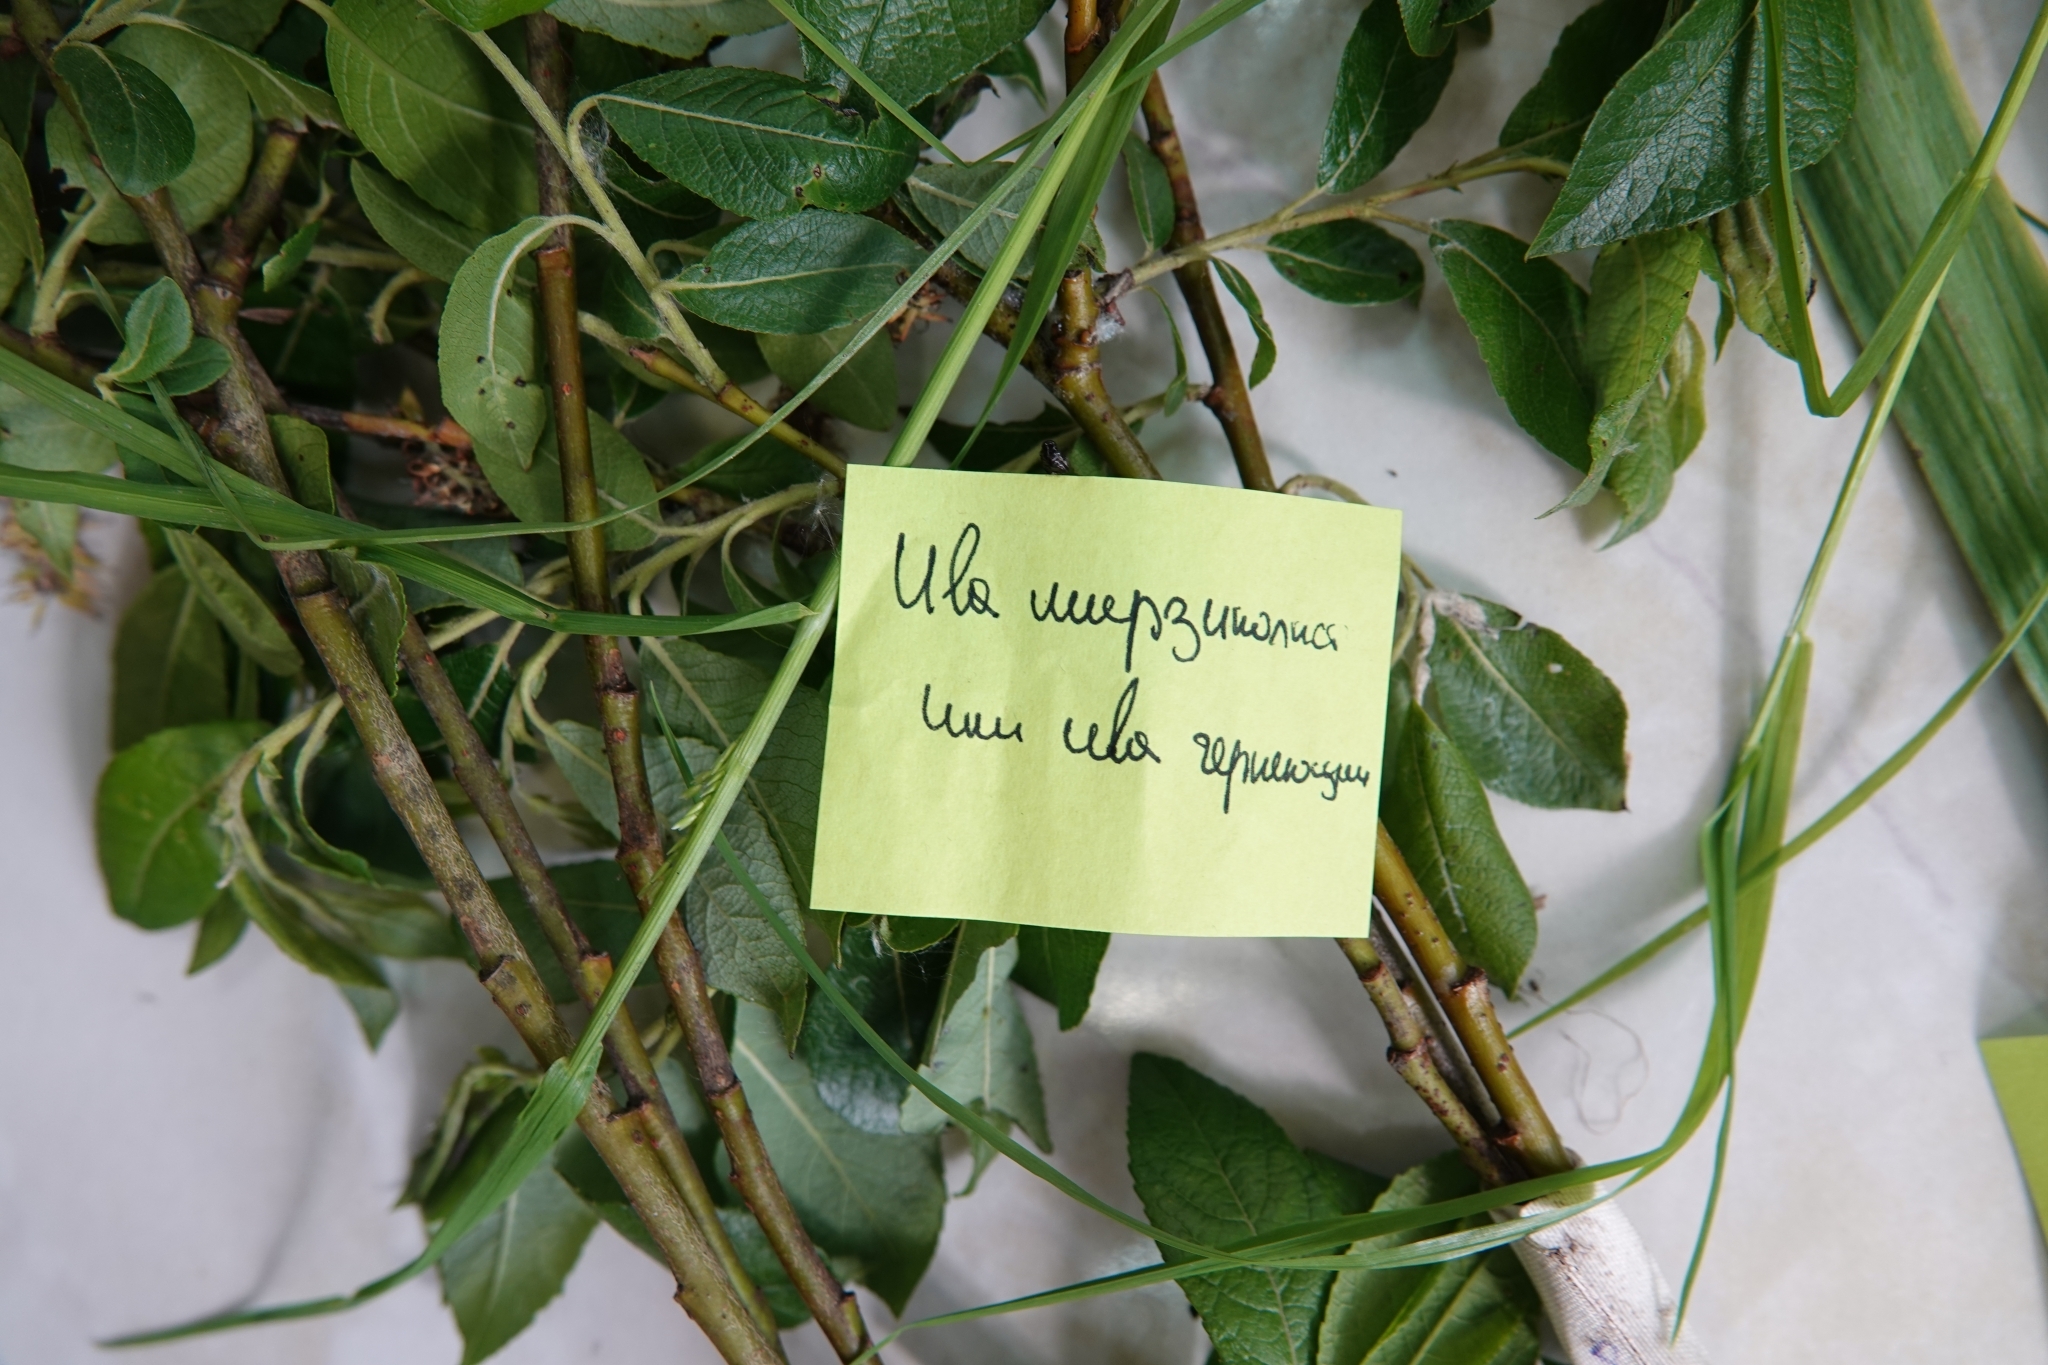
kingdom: Plantae
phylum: Tracheophyta
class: Magnoliopsida
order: Malpighiales
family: Salicaceae
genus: Salix
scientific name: Salix myrsinifolia
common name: Dark-leaved willow
